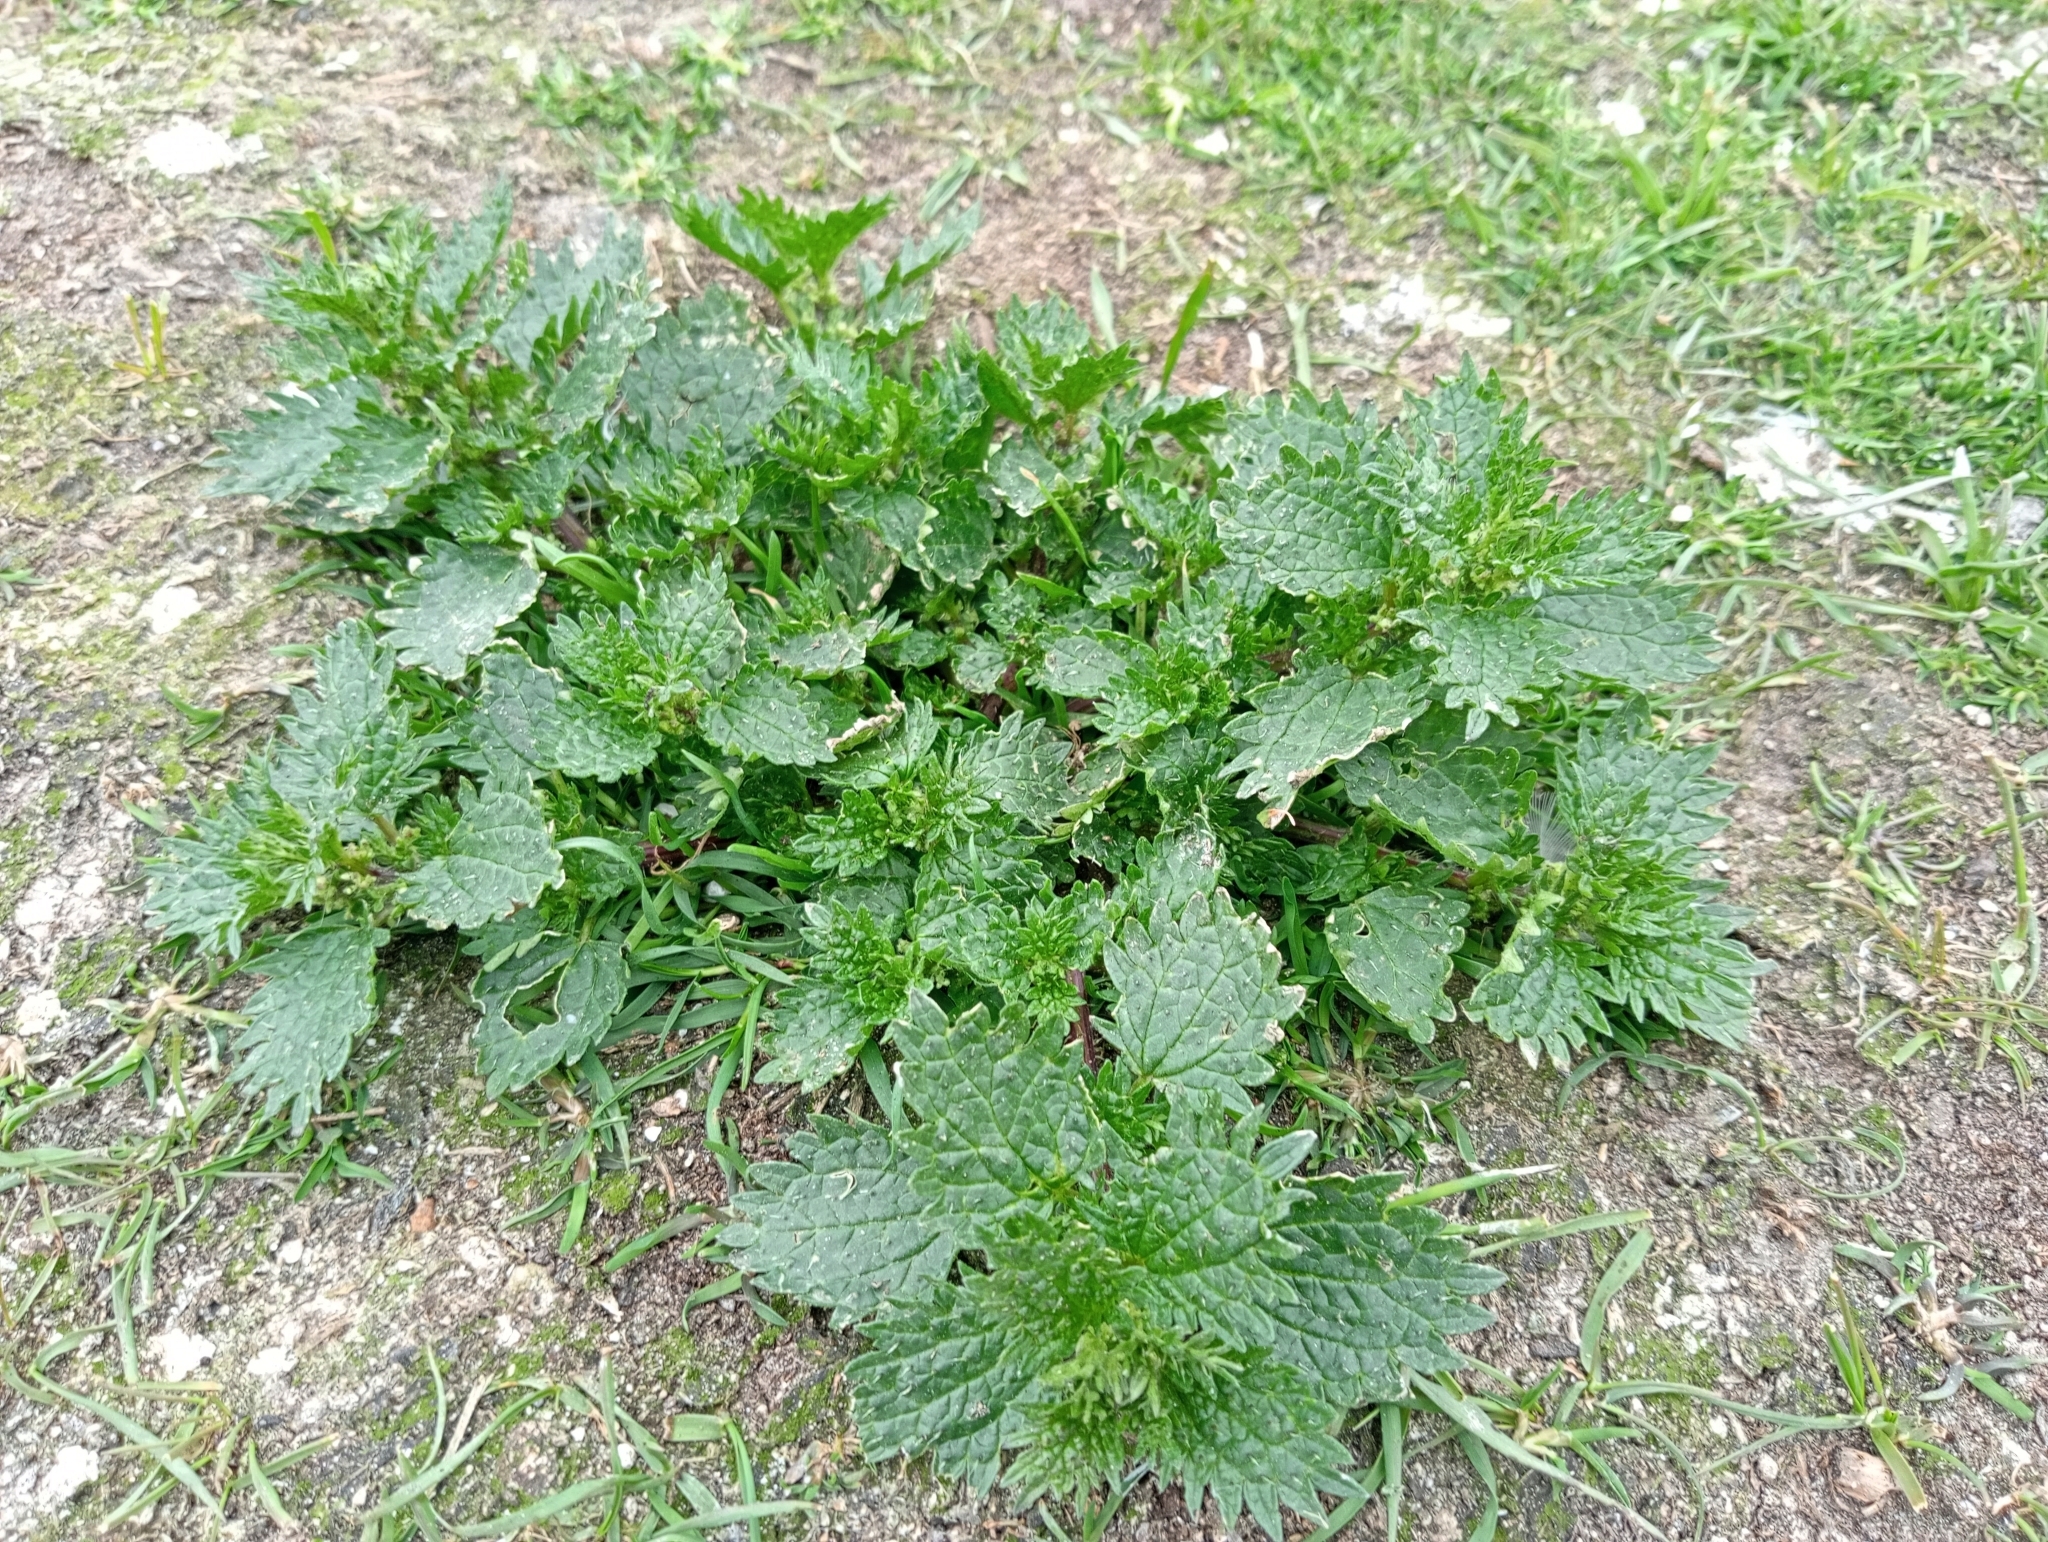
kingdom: Plantae
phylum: Tracheophyta
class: Magnoliopsida
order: Rosales
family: Urticaceae
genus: Urtica
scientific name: Urtica urens
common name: Dwarf nettle
